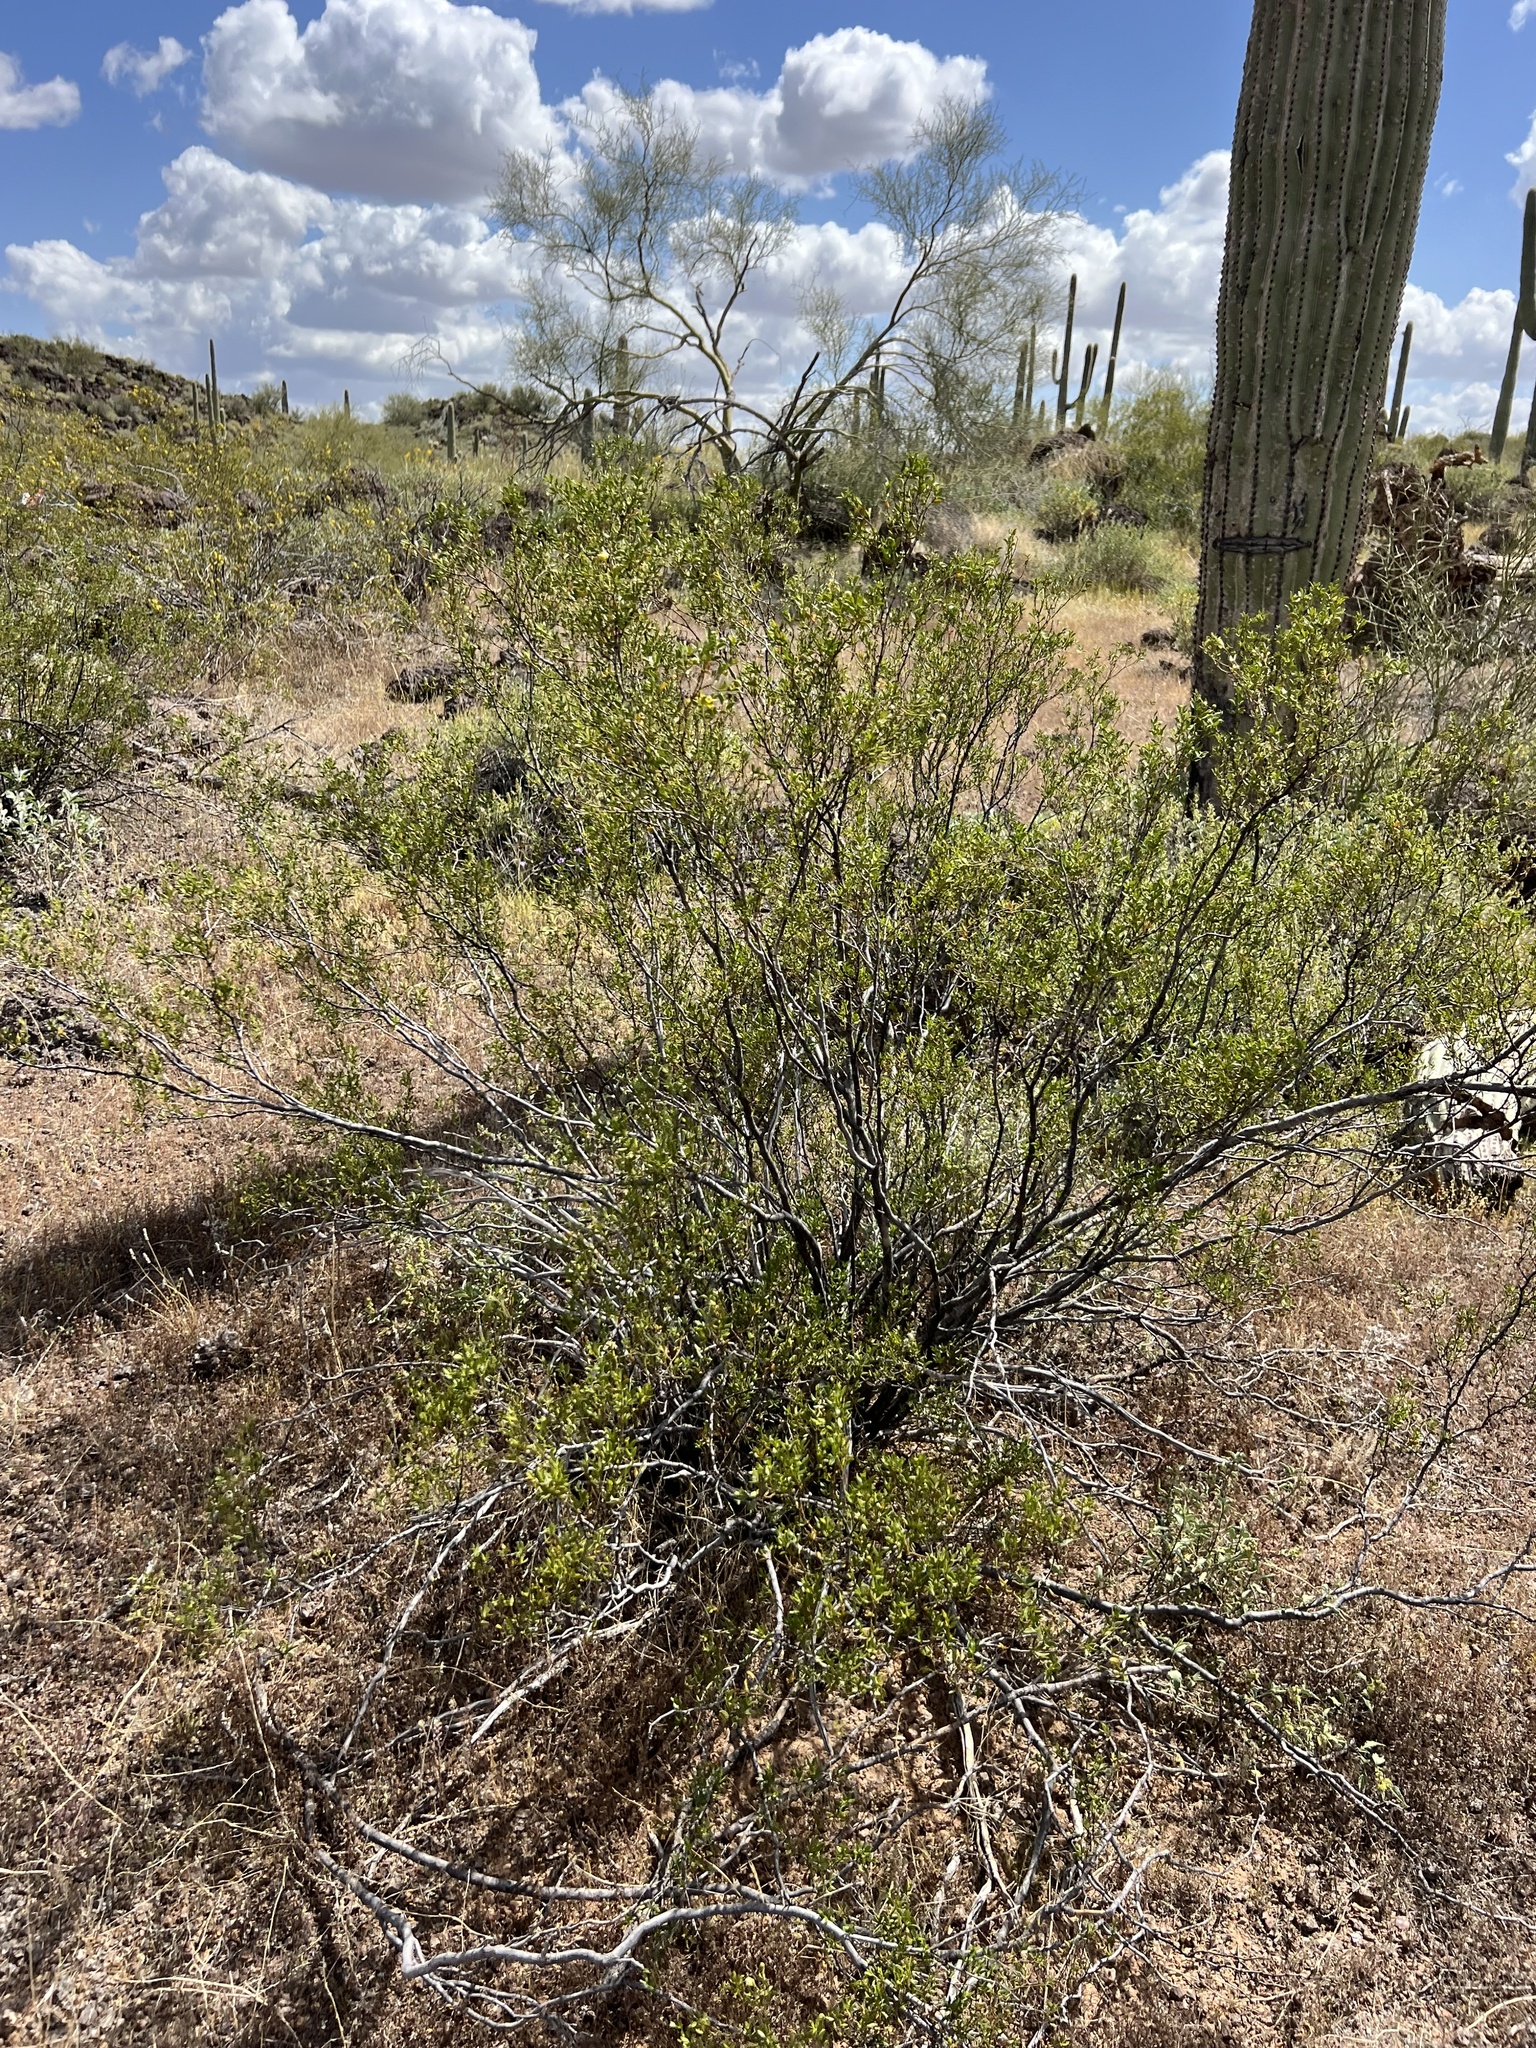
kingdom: Plantae
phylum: Tracheophyta
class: Magnoliopsida
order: Zygophyllales
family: Zygophyllaceae
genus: Larrea
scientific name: Larrea tridentata
